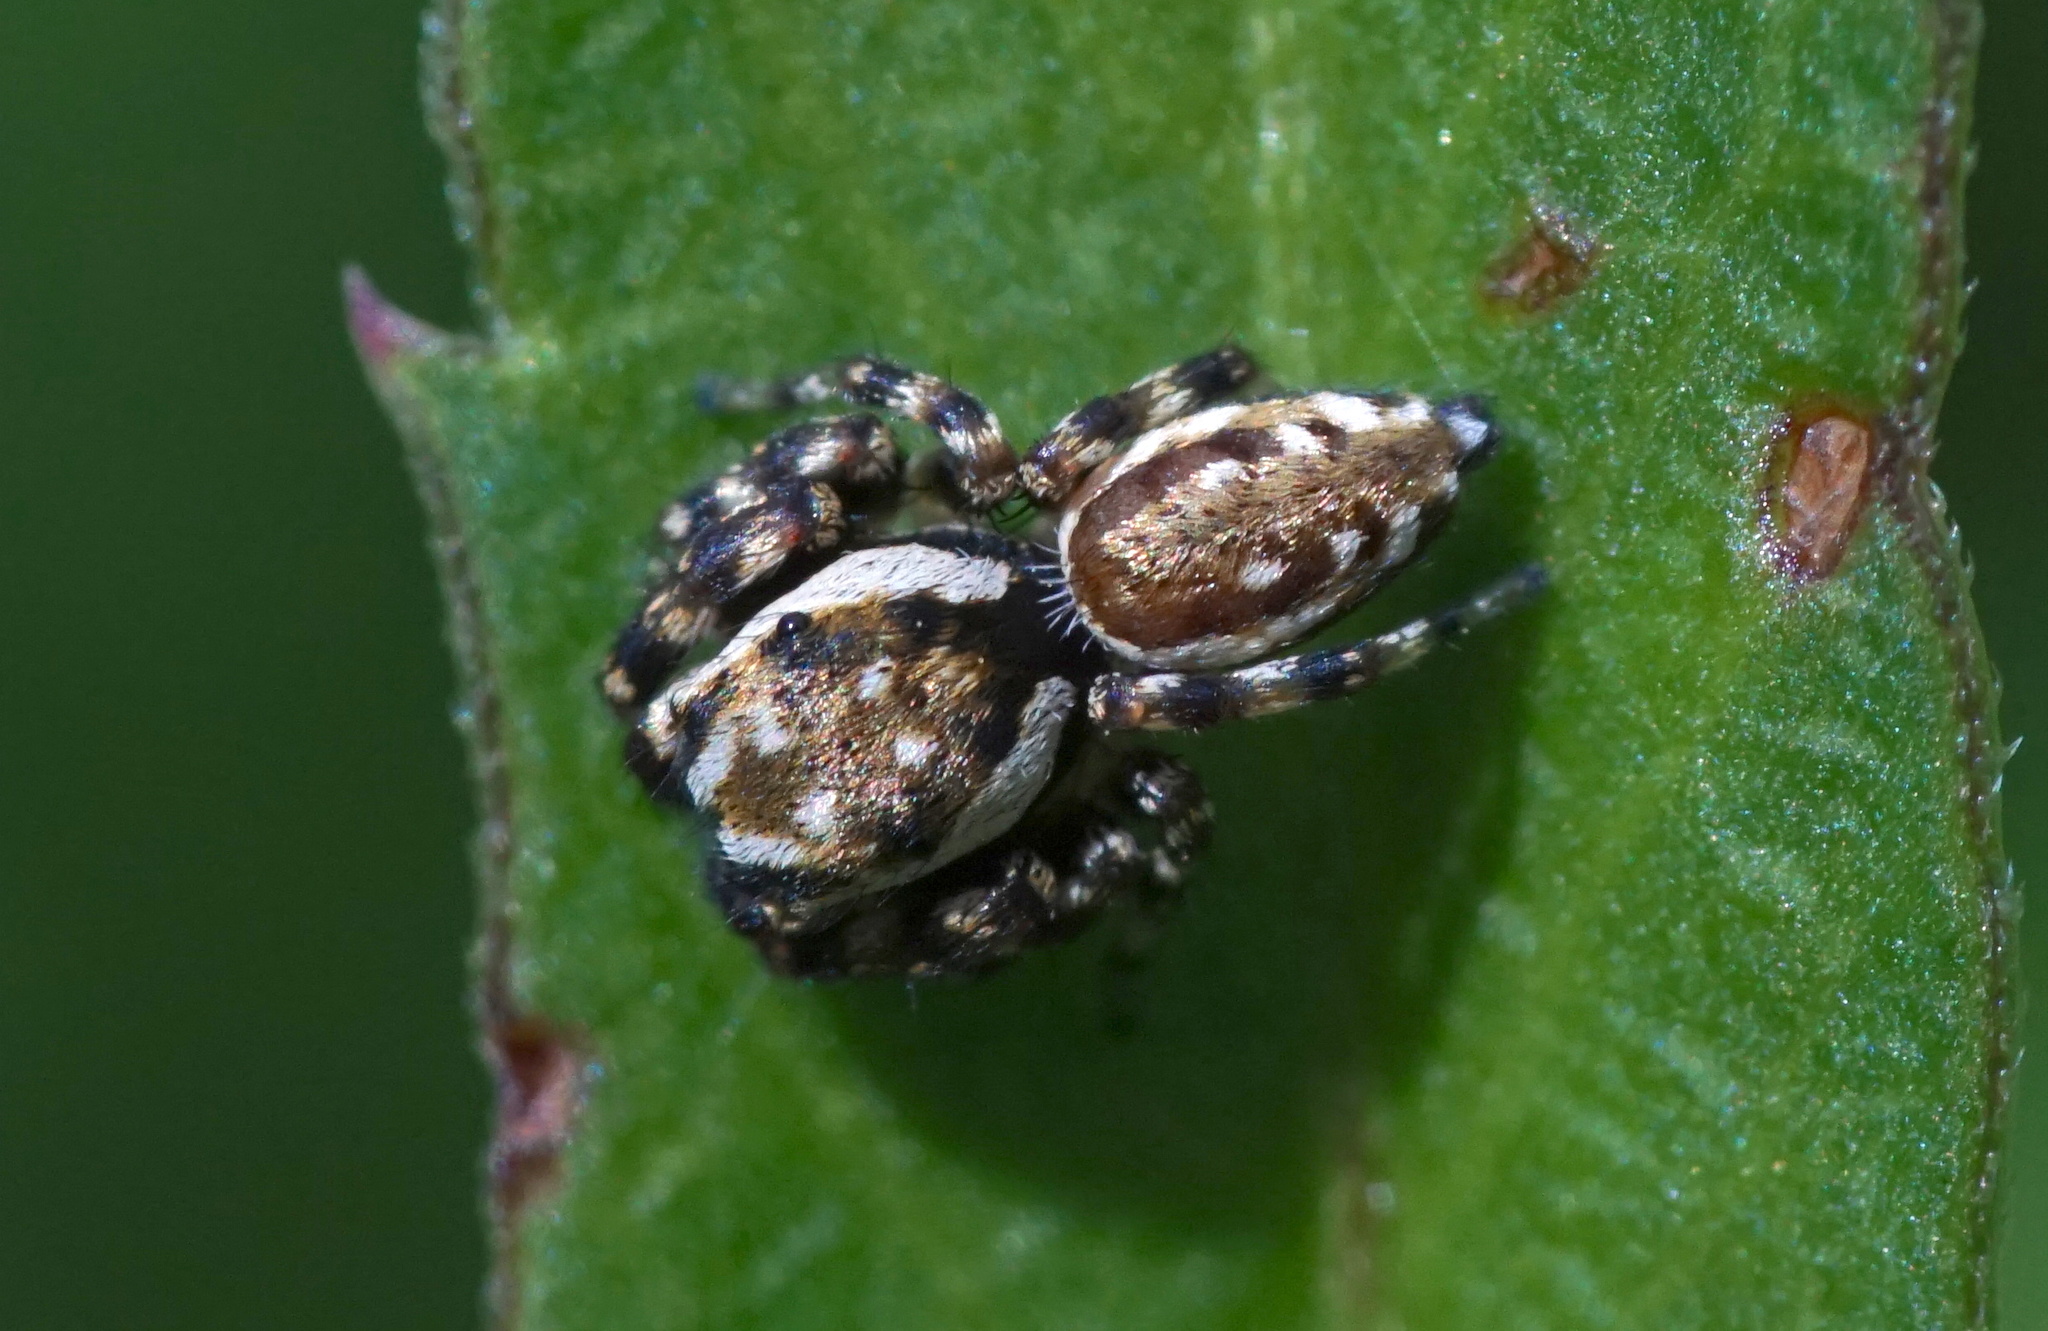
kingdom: Animalia
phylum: Arthropoda
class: Arachnida
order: Araneae
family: Salticidae
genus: Pelegrina
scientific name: Pelegrina galathea
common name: Jumping spiders
